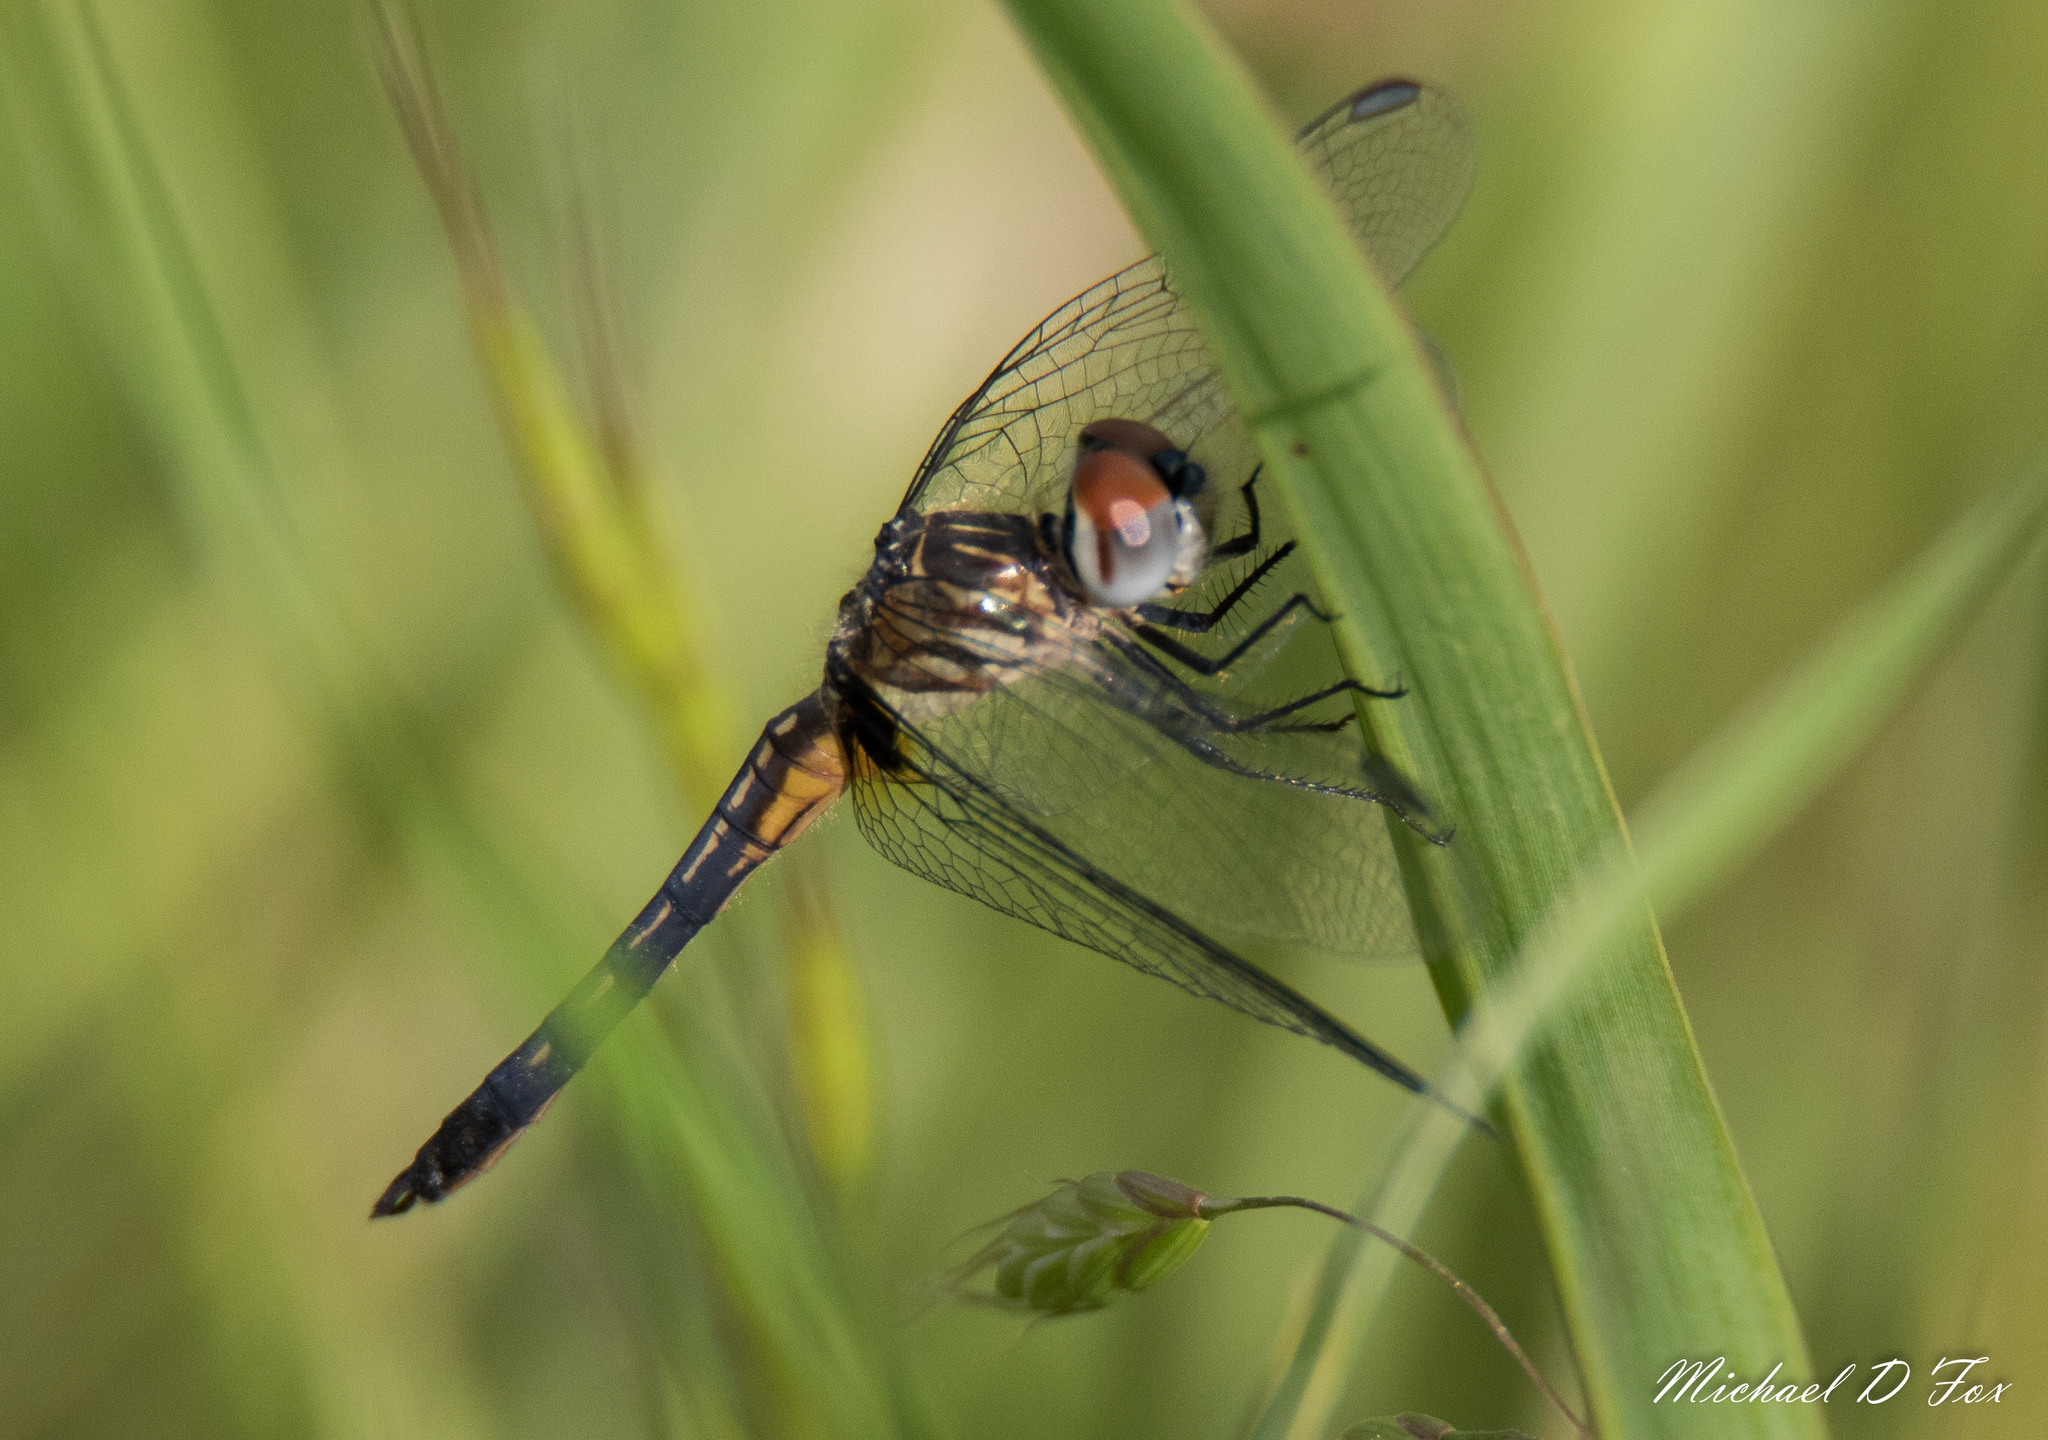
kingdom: Animalia
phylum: Arthropoda
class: Insecta
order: Odonata
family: Libellulidae
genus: Pachydiplax
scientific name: Pachydiplax longipennis
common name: Blue dasher
